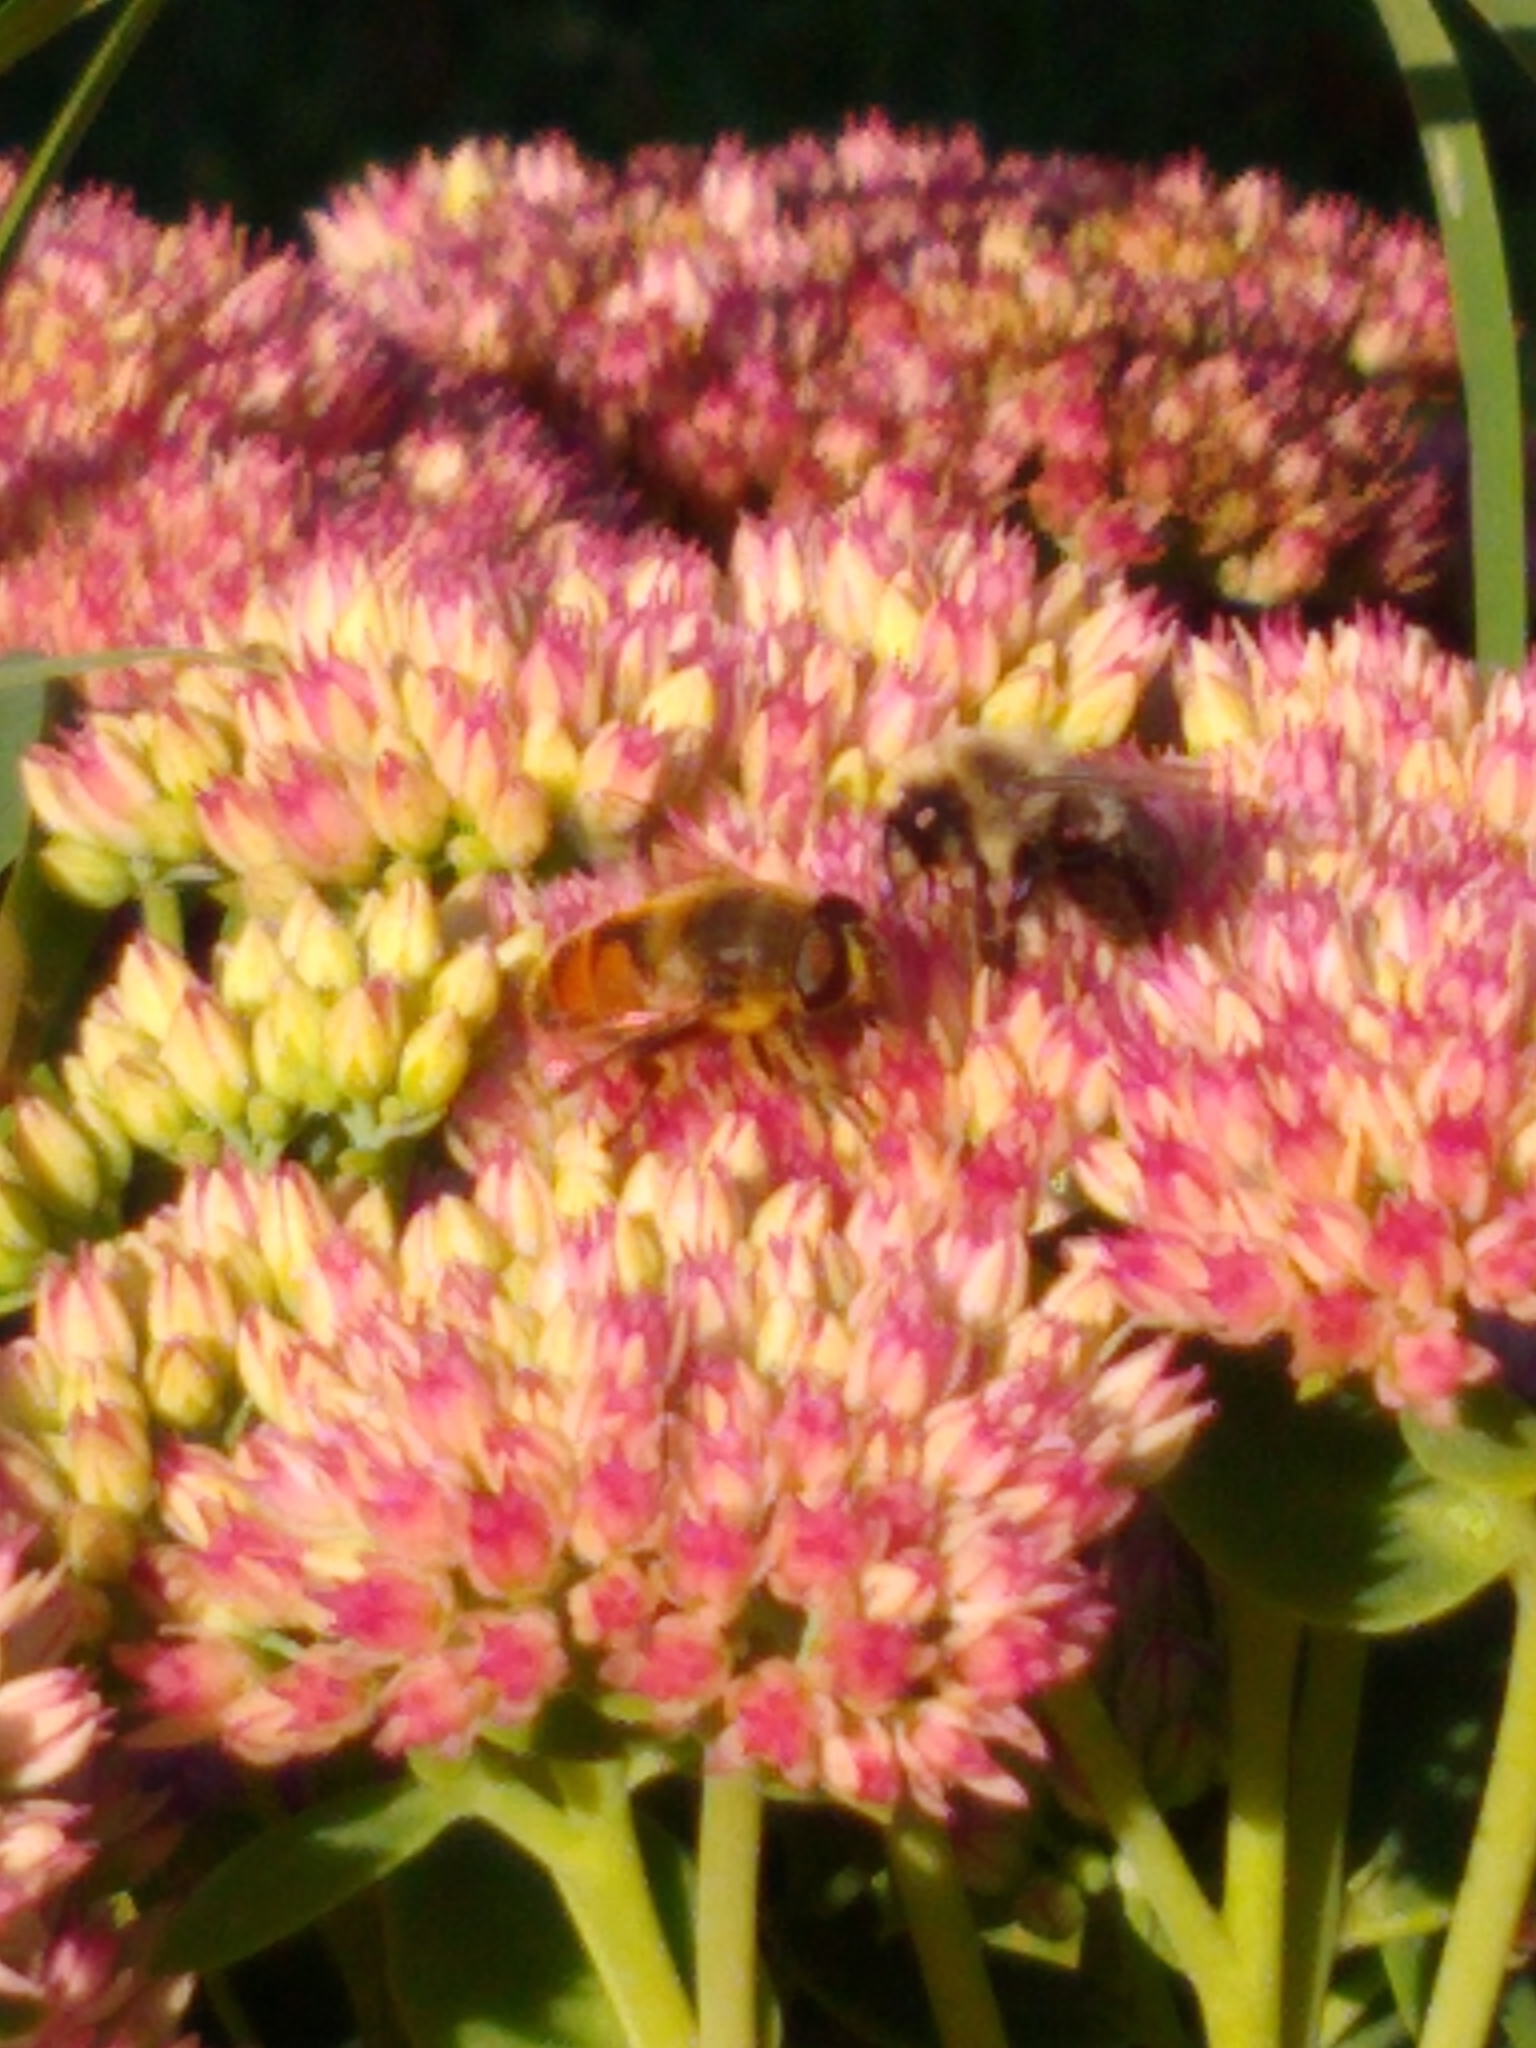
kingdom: Animalia
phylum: Arthropoda
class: Insecta
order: Diptera
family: Syrphidae
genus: Eristalis
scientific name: Eristalis tenax
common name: Drone fly
